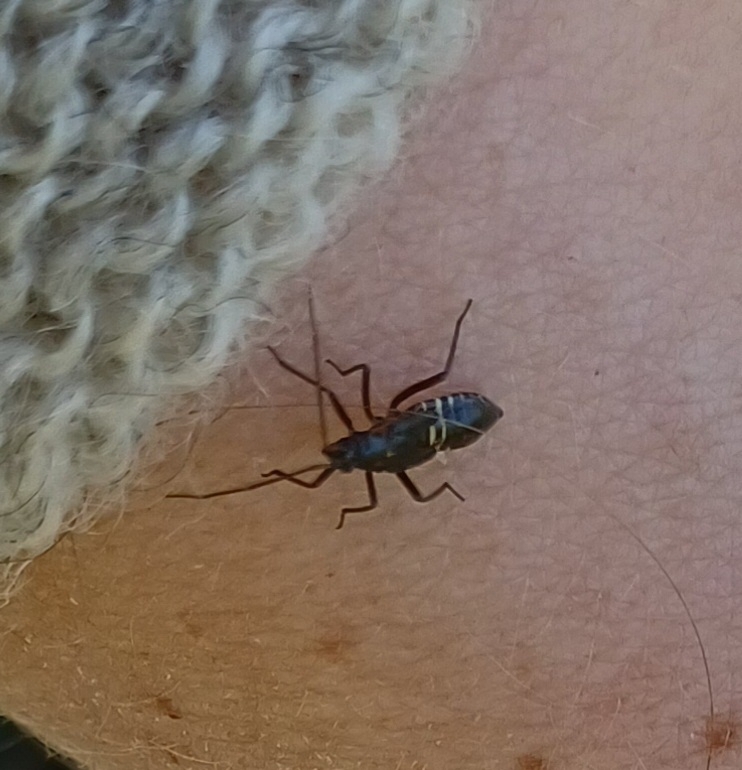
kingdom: Animalia
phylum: Arthropoda
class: Insecta
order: Hemiptera
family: Miridae
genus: Miris
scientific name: Miris striatus
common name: Fine streaked bugkin
